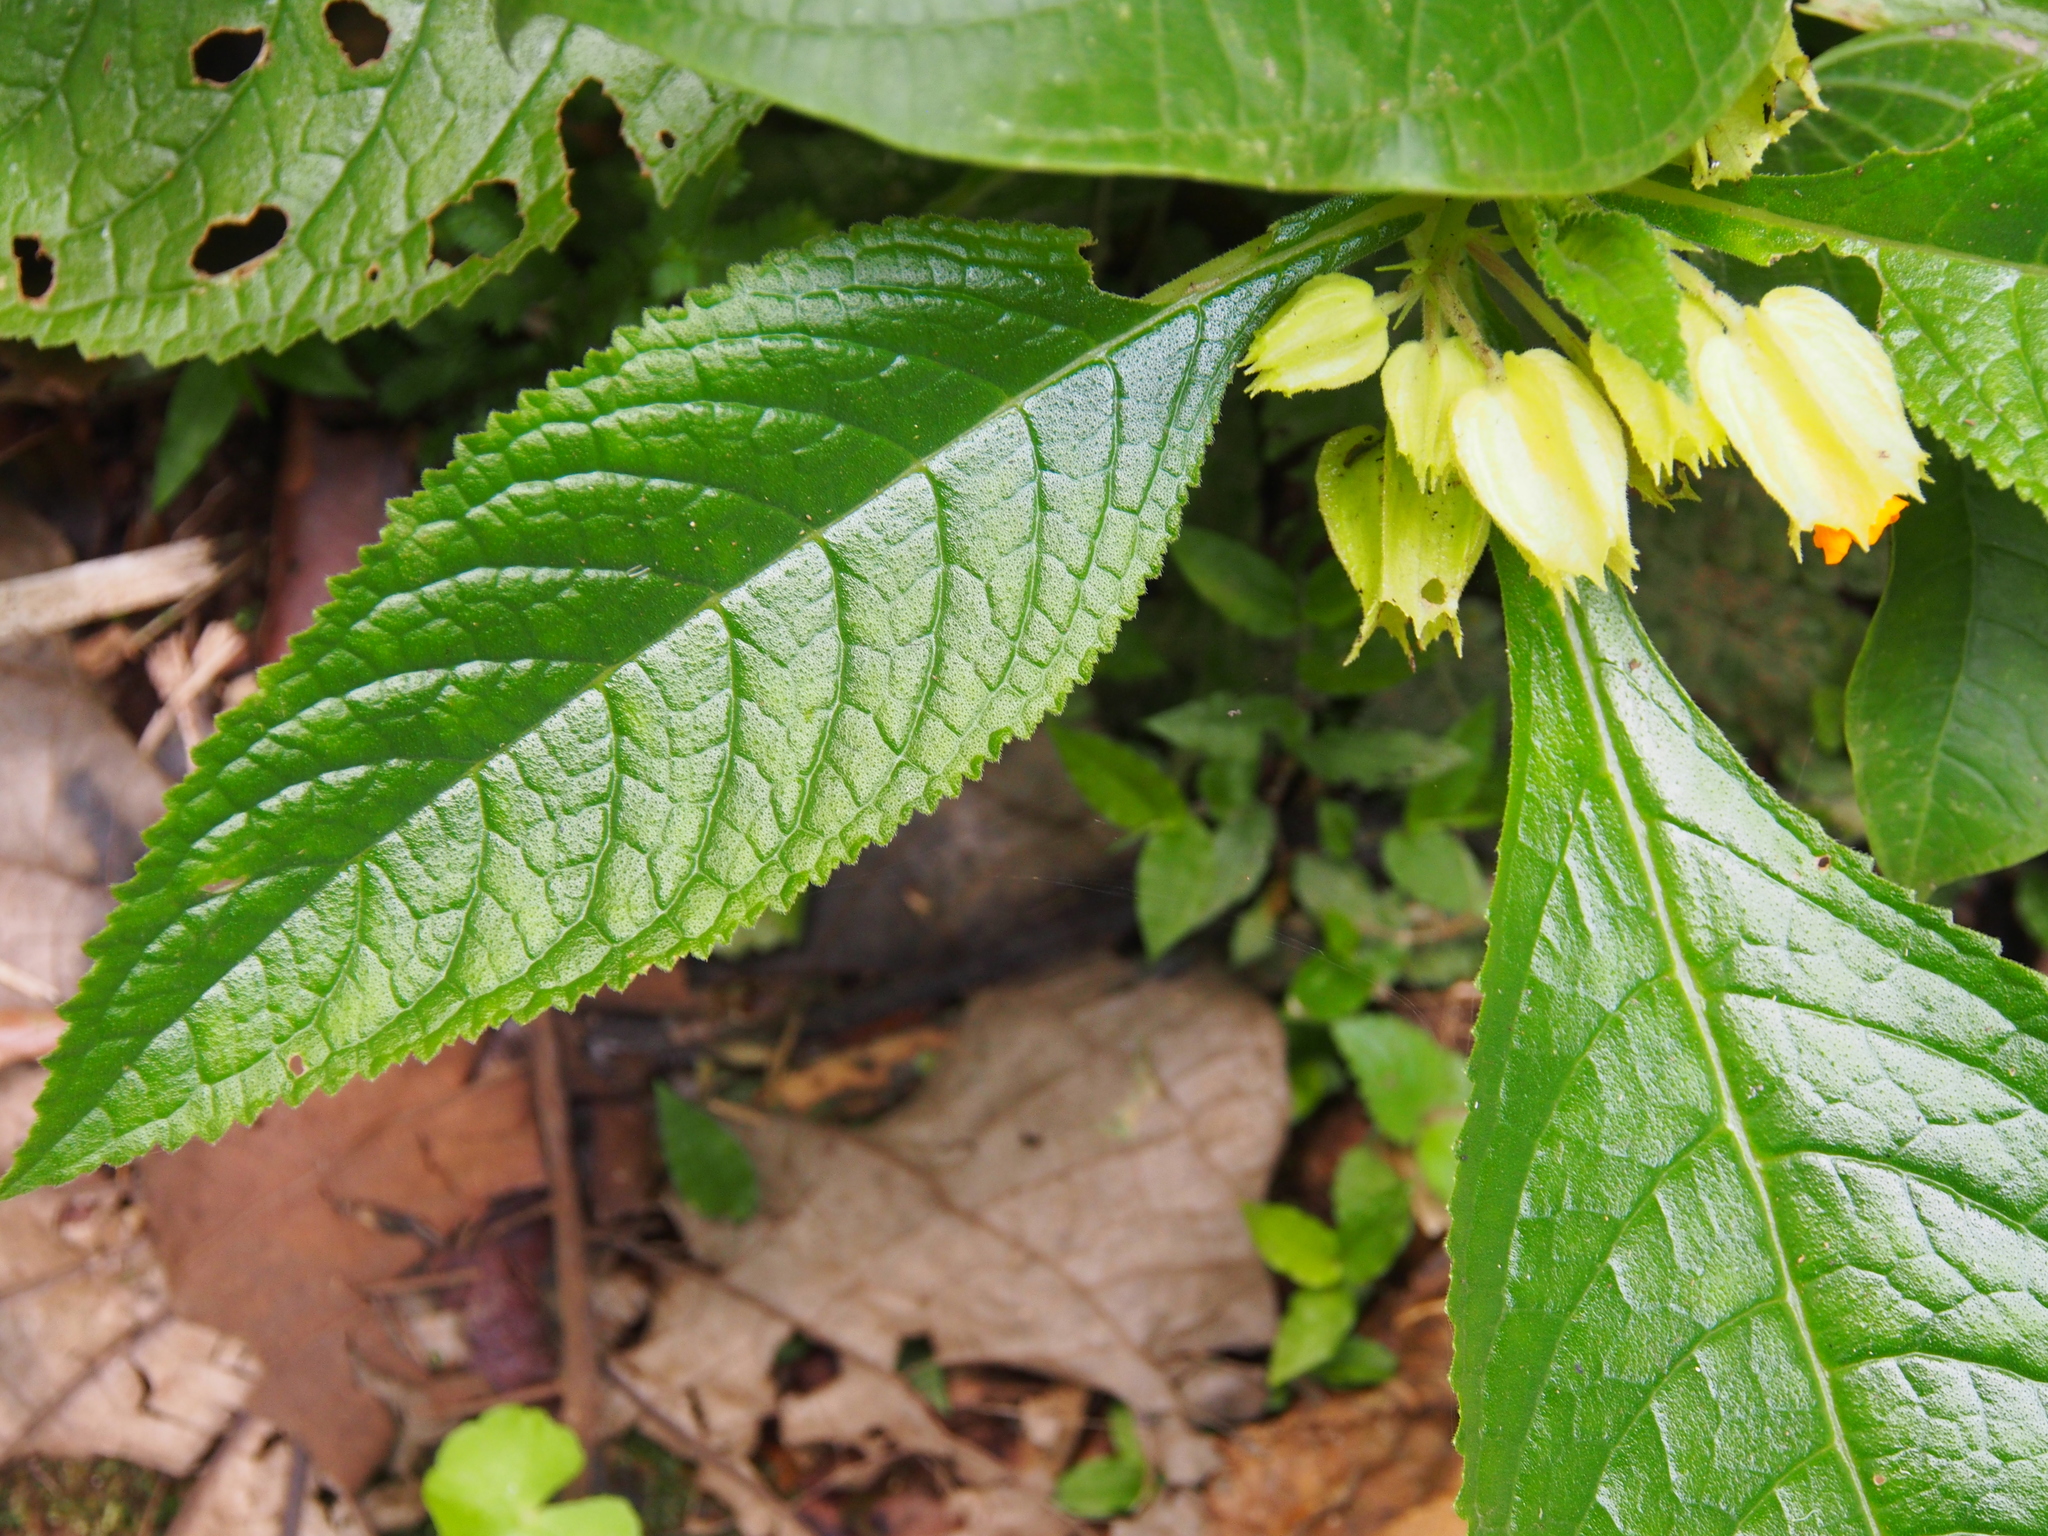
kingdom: Plantae
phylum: Tracheophyta
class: Magnoliopsida
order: Lamiales
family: Gesneriaceae
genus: Chrysothemis
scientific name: Chrysothemis friedrichsthaliana
